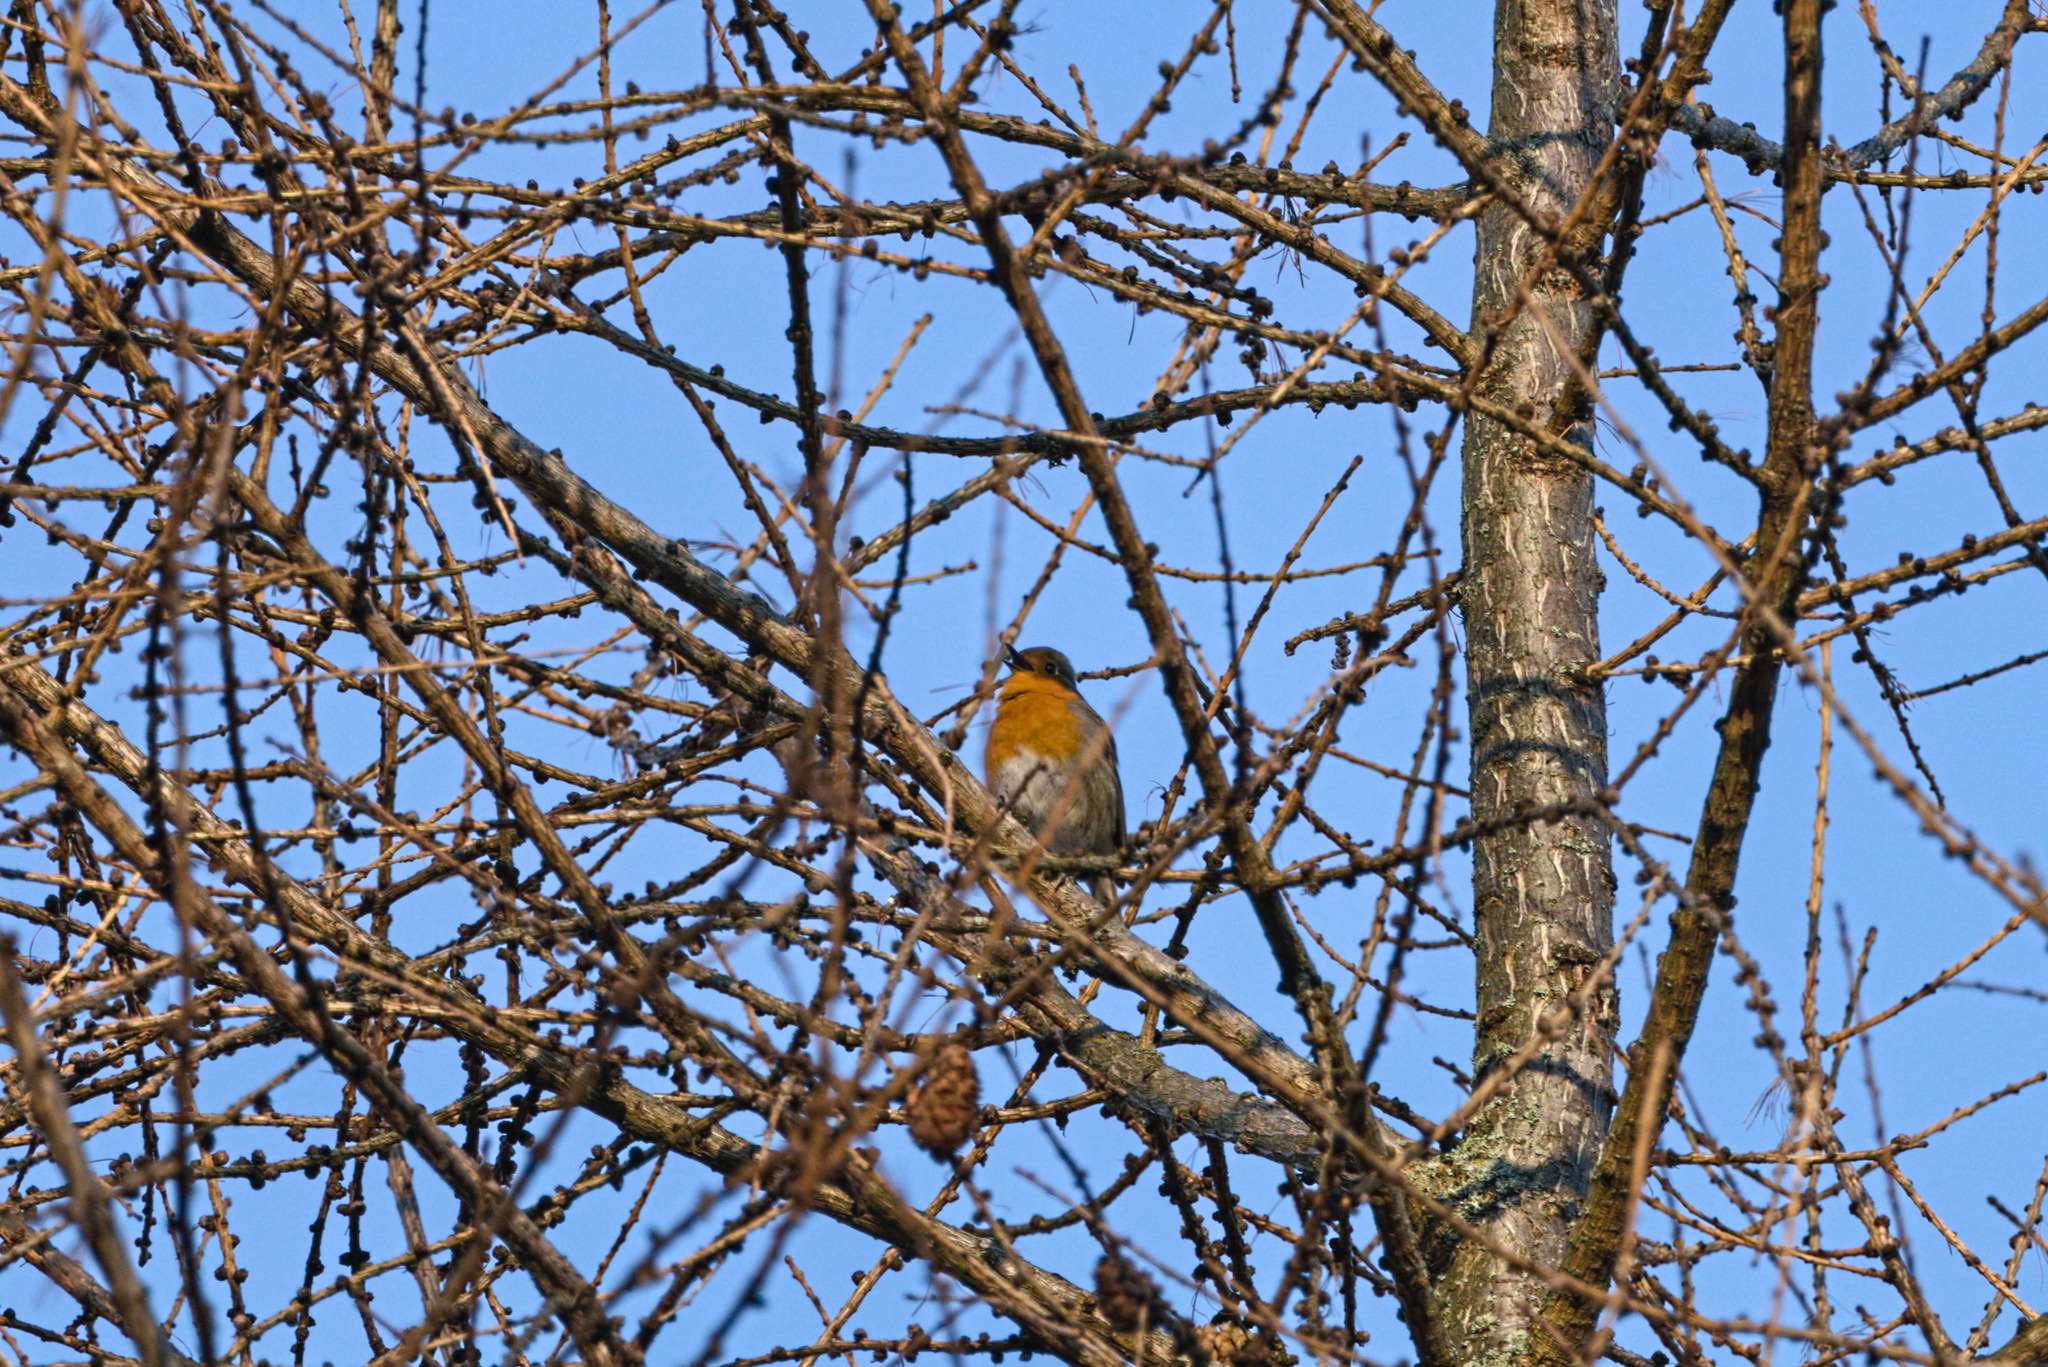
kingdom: Animalia
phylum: Chordata
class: Aves
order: Passeriformes
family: Muscicapidae
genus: Erithacus
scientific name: Erithacus rubecula
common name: European robin
